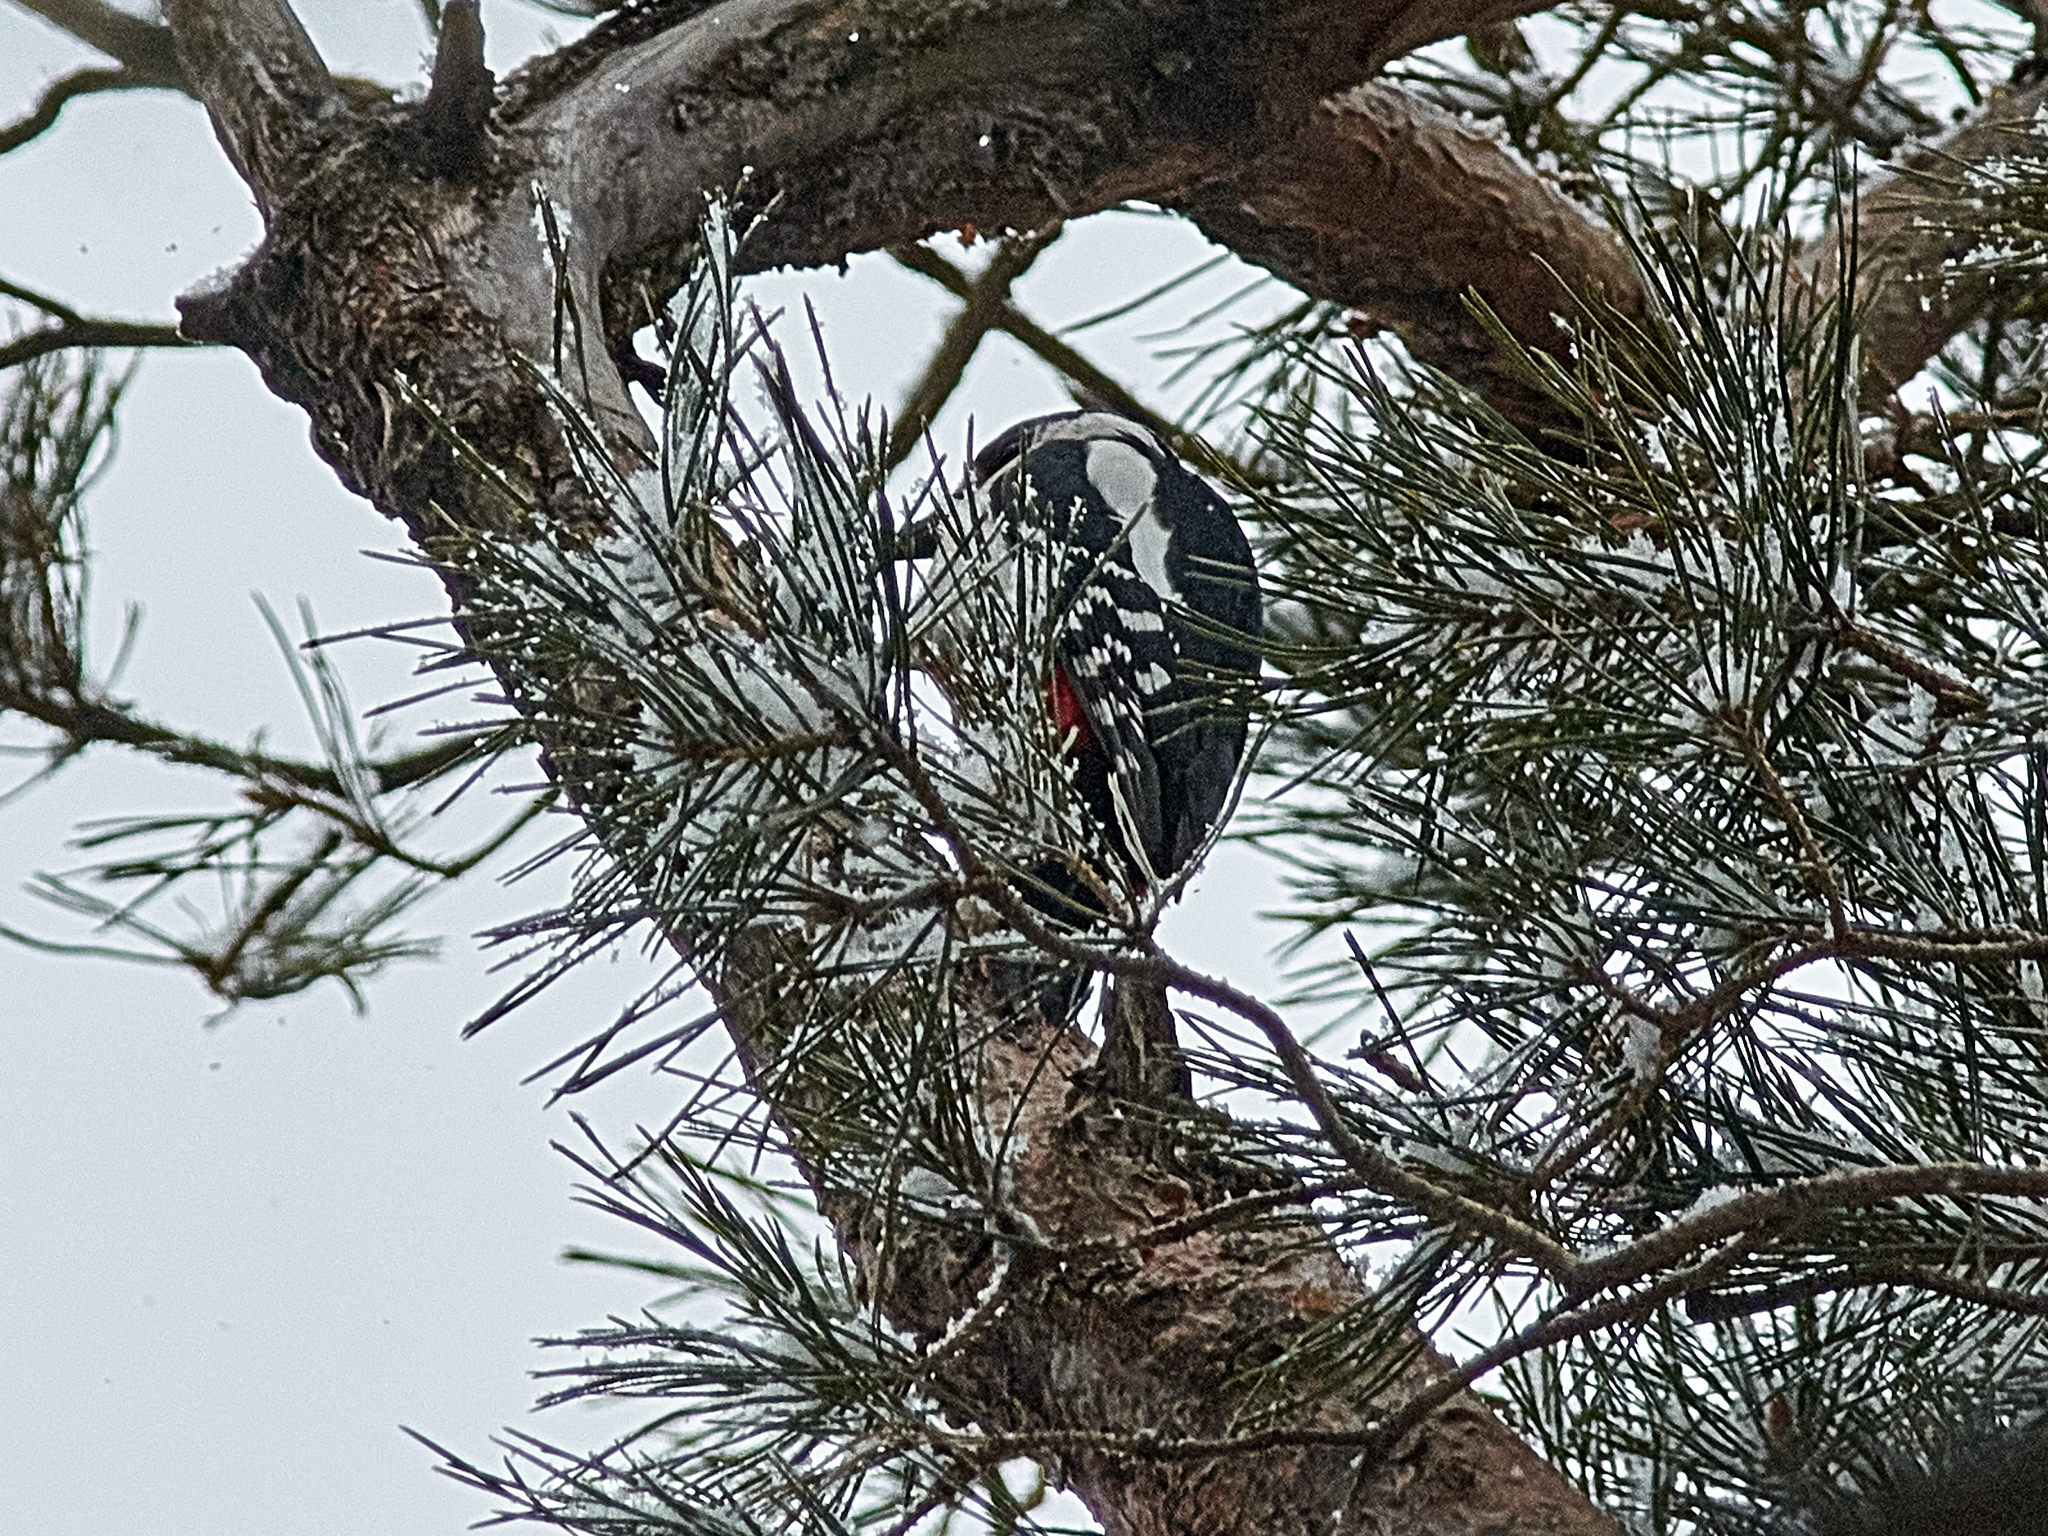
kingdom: Animalia
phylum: Chordata
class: Aves
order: Piciformes
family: Picidae
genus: Dendrocopos
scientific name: Dendrocopos major
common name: Great spotted woodpecker
